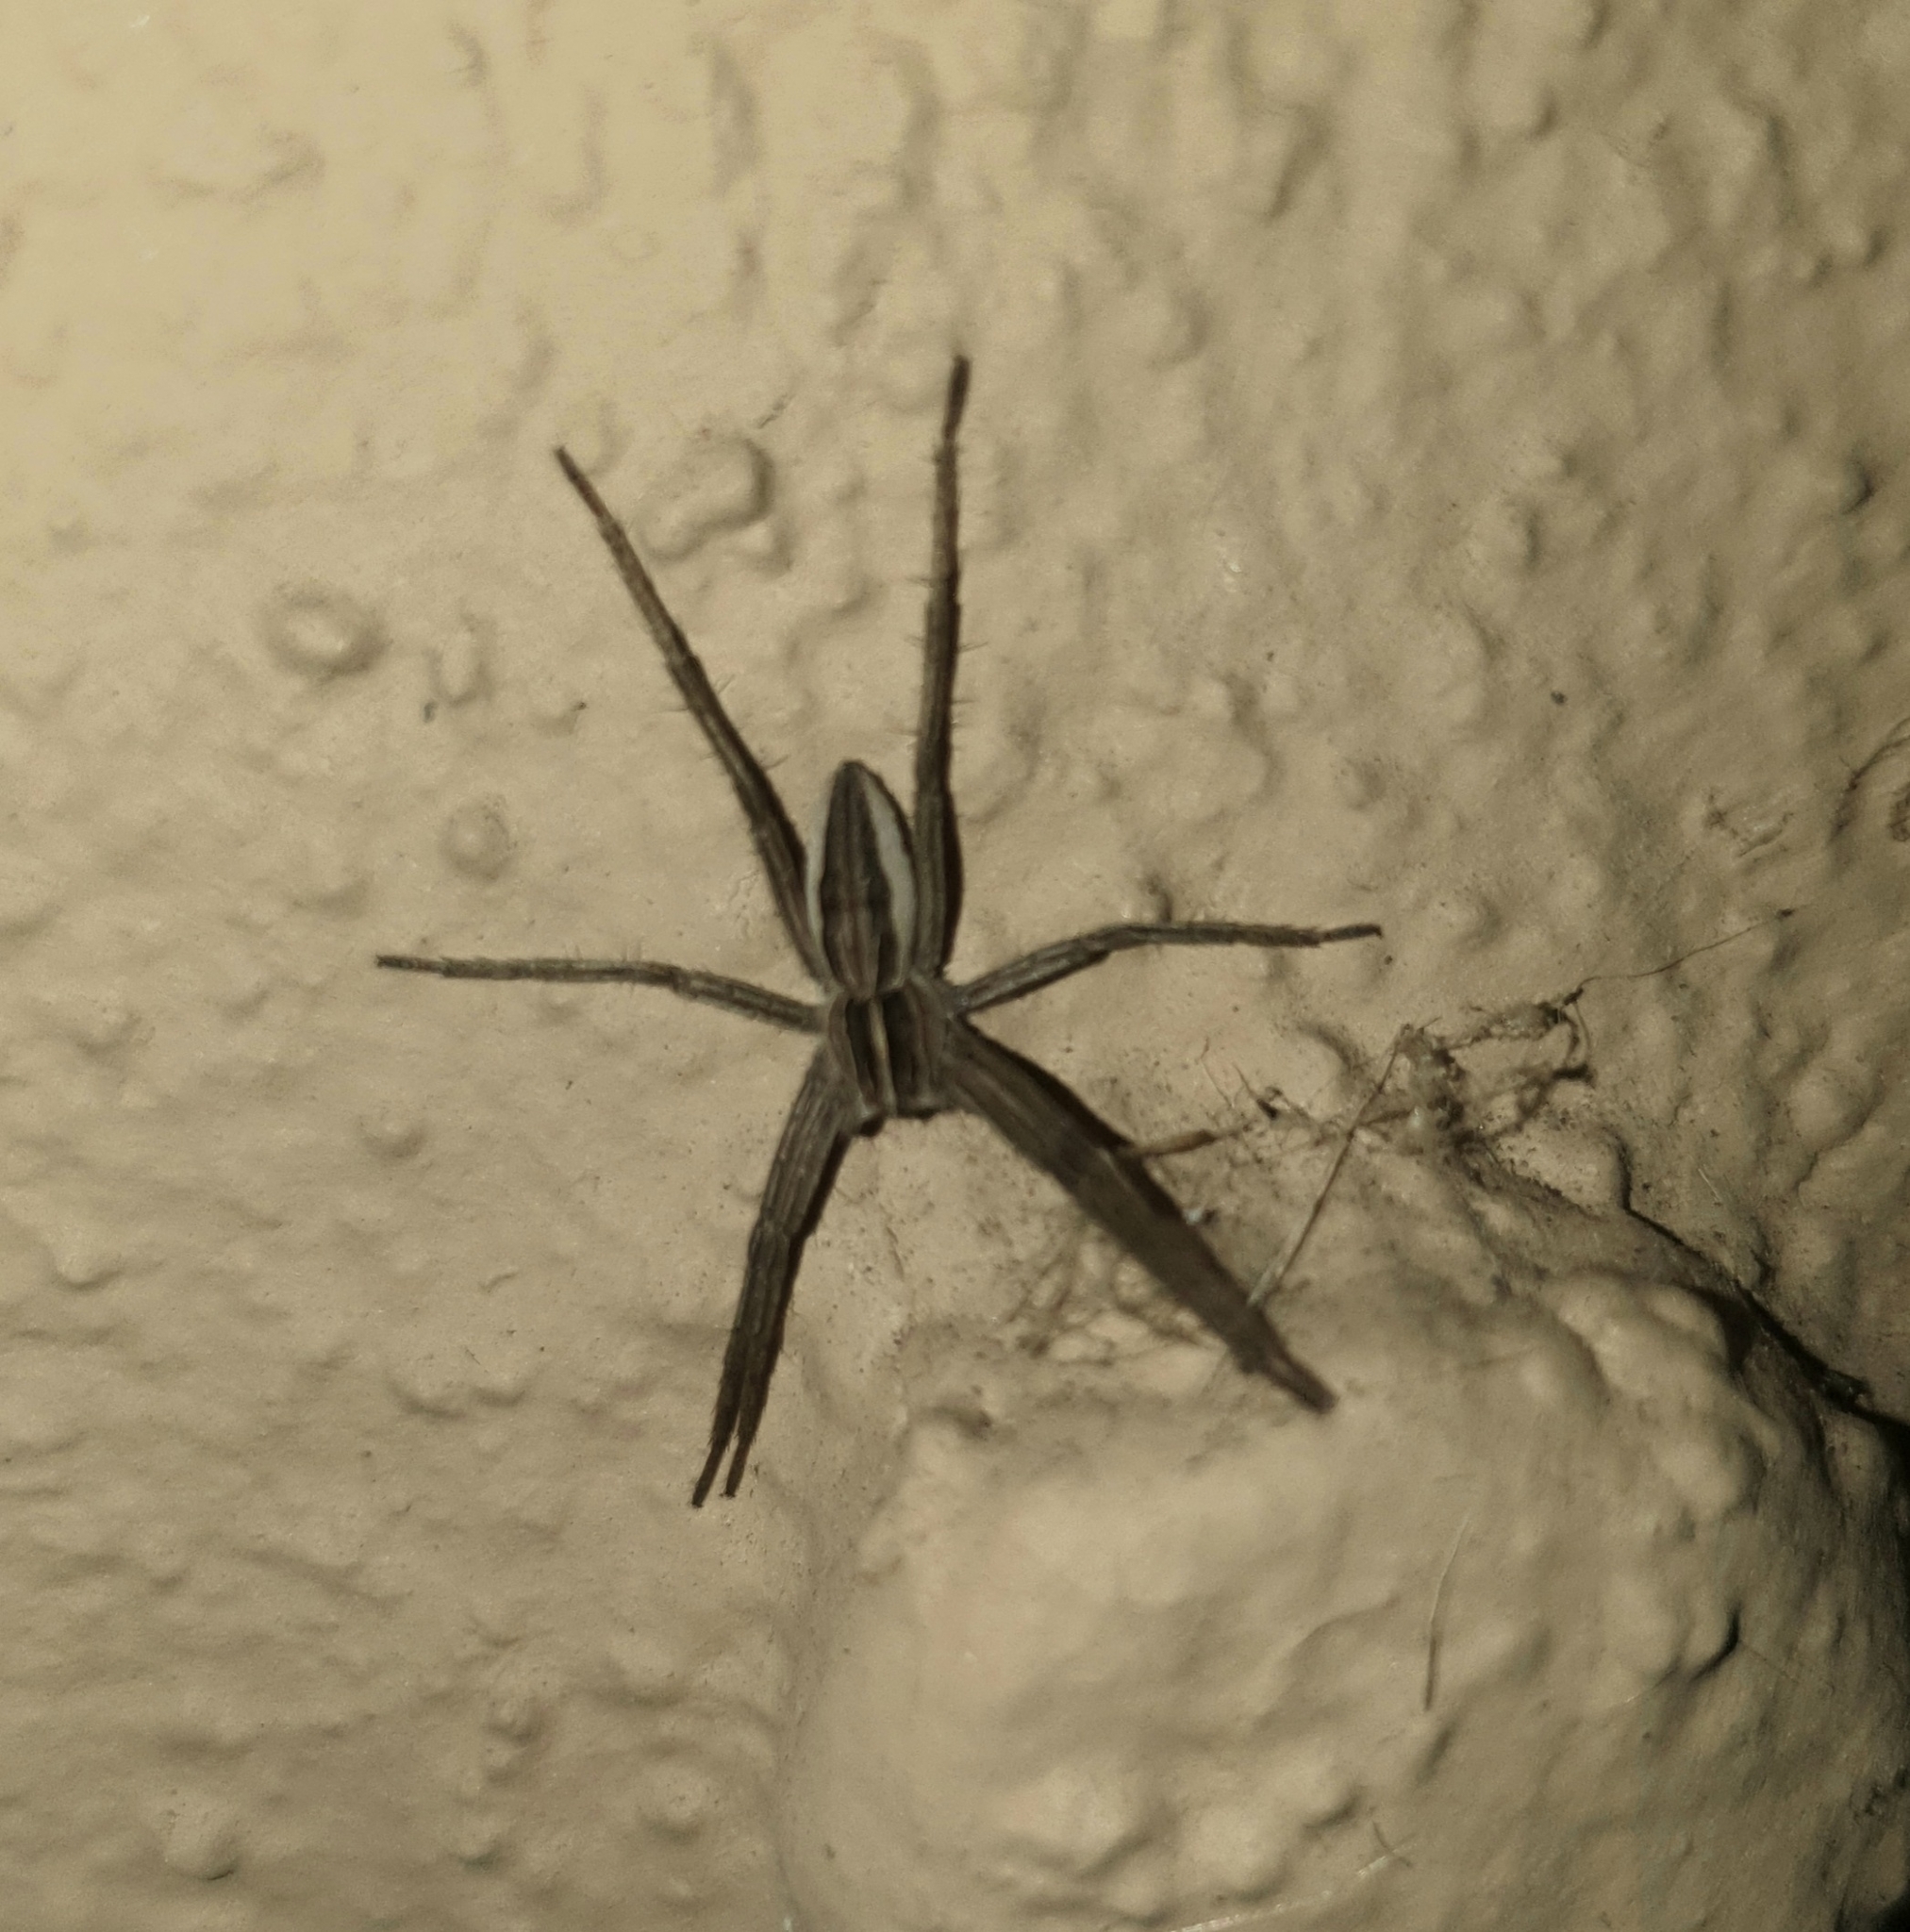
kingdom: Animalia
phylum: Arthropoda
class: Arachnida
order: Araneae
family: Pisauridae
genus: Pisaura
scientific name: Pisaura mirabilis
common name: Tent spider
